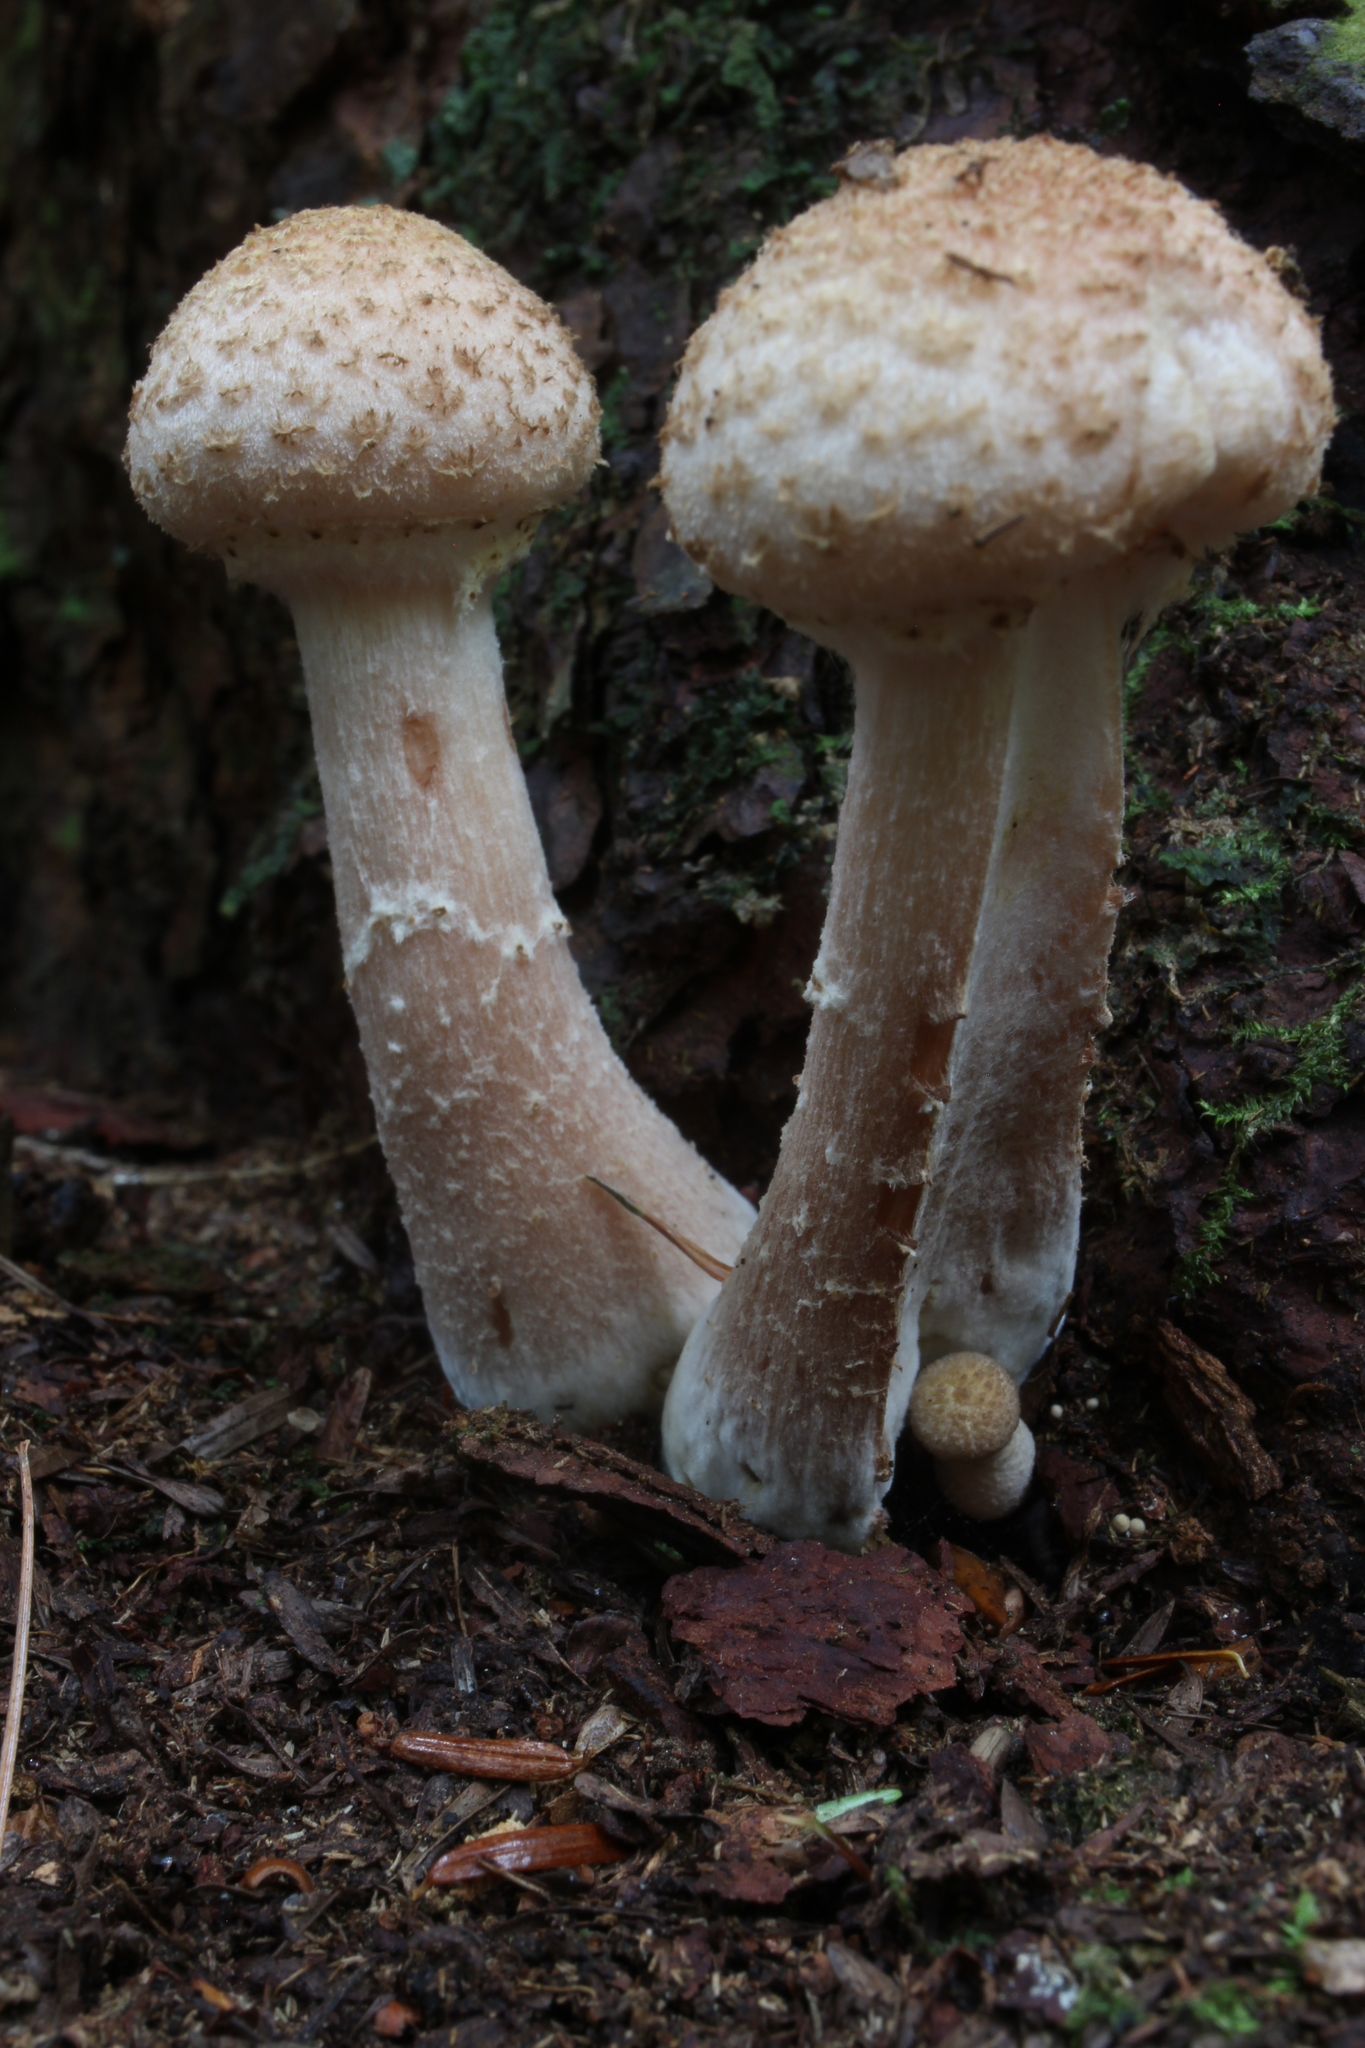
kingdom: Fungi
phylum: Basidiomycota
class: Agaricomycetes
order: Agaricales
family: Physalacriaceae
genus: Armillaria
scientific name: Armillaria ostoyae
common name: Dark honey fungus
